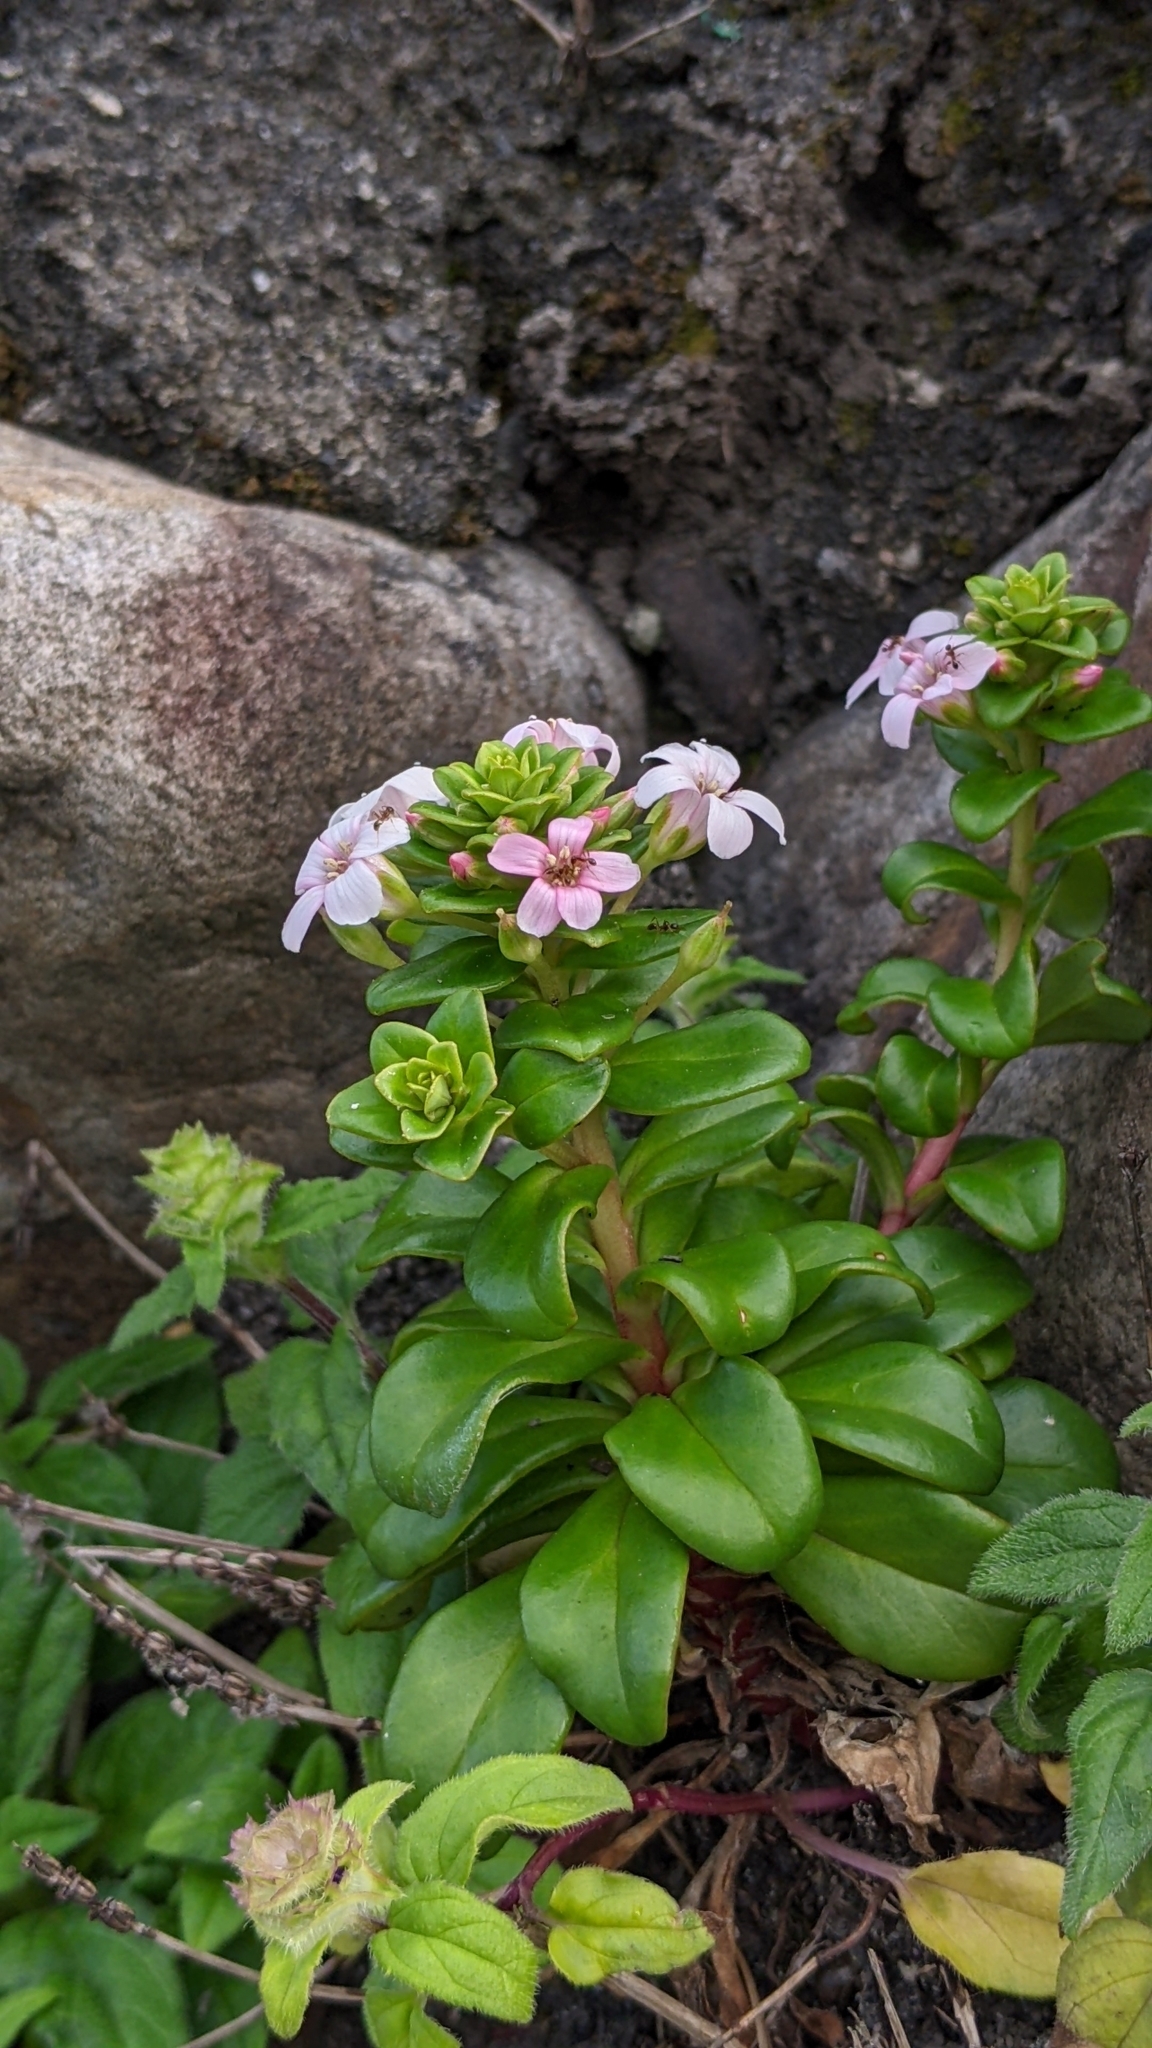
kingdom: Plantae
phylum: Tracheophyta
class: Magnoliopsida
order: Ericales
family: Primulaceae
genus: Lysimachia
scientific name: Lysimachia mauritiana
